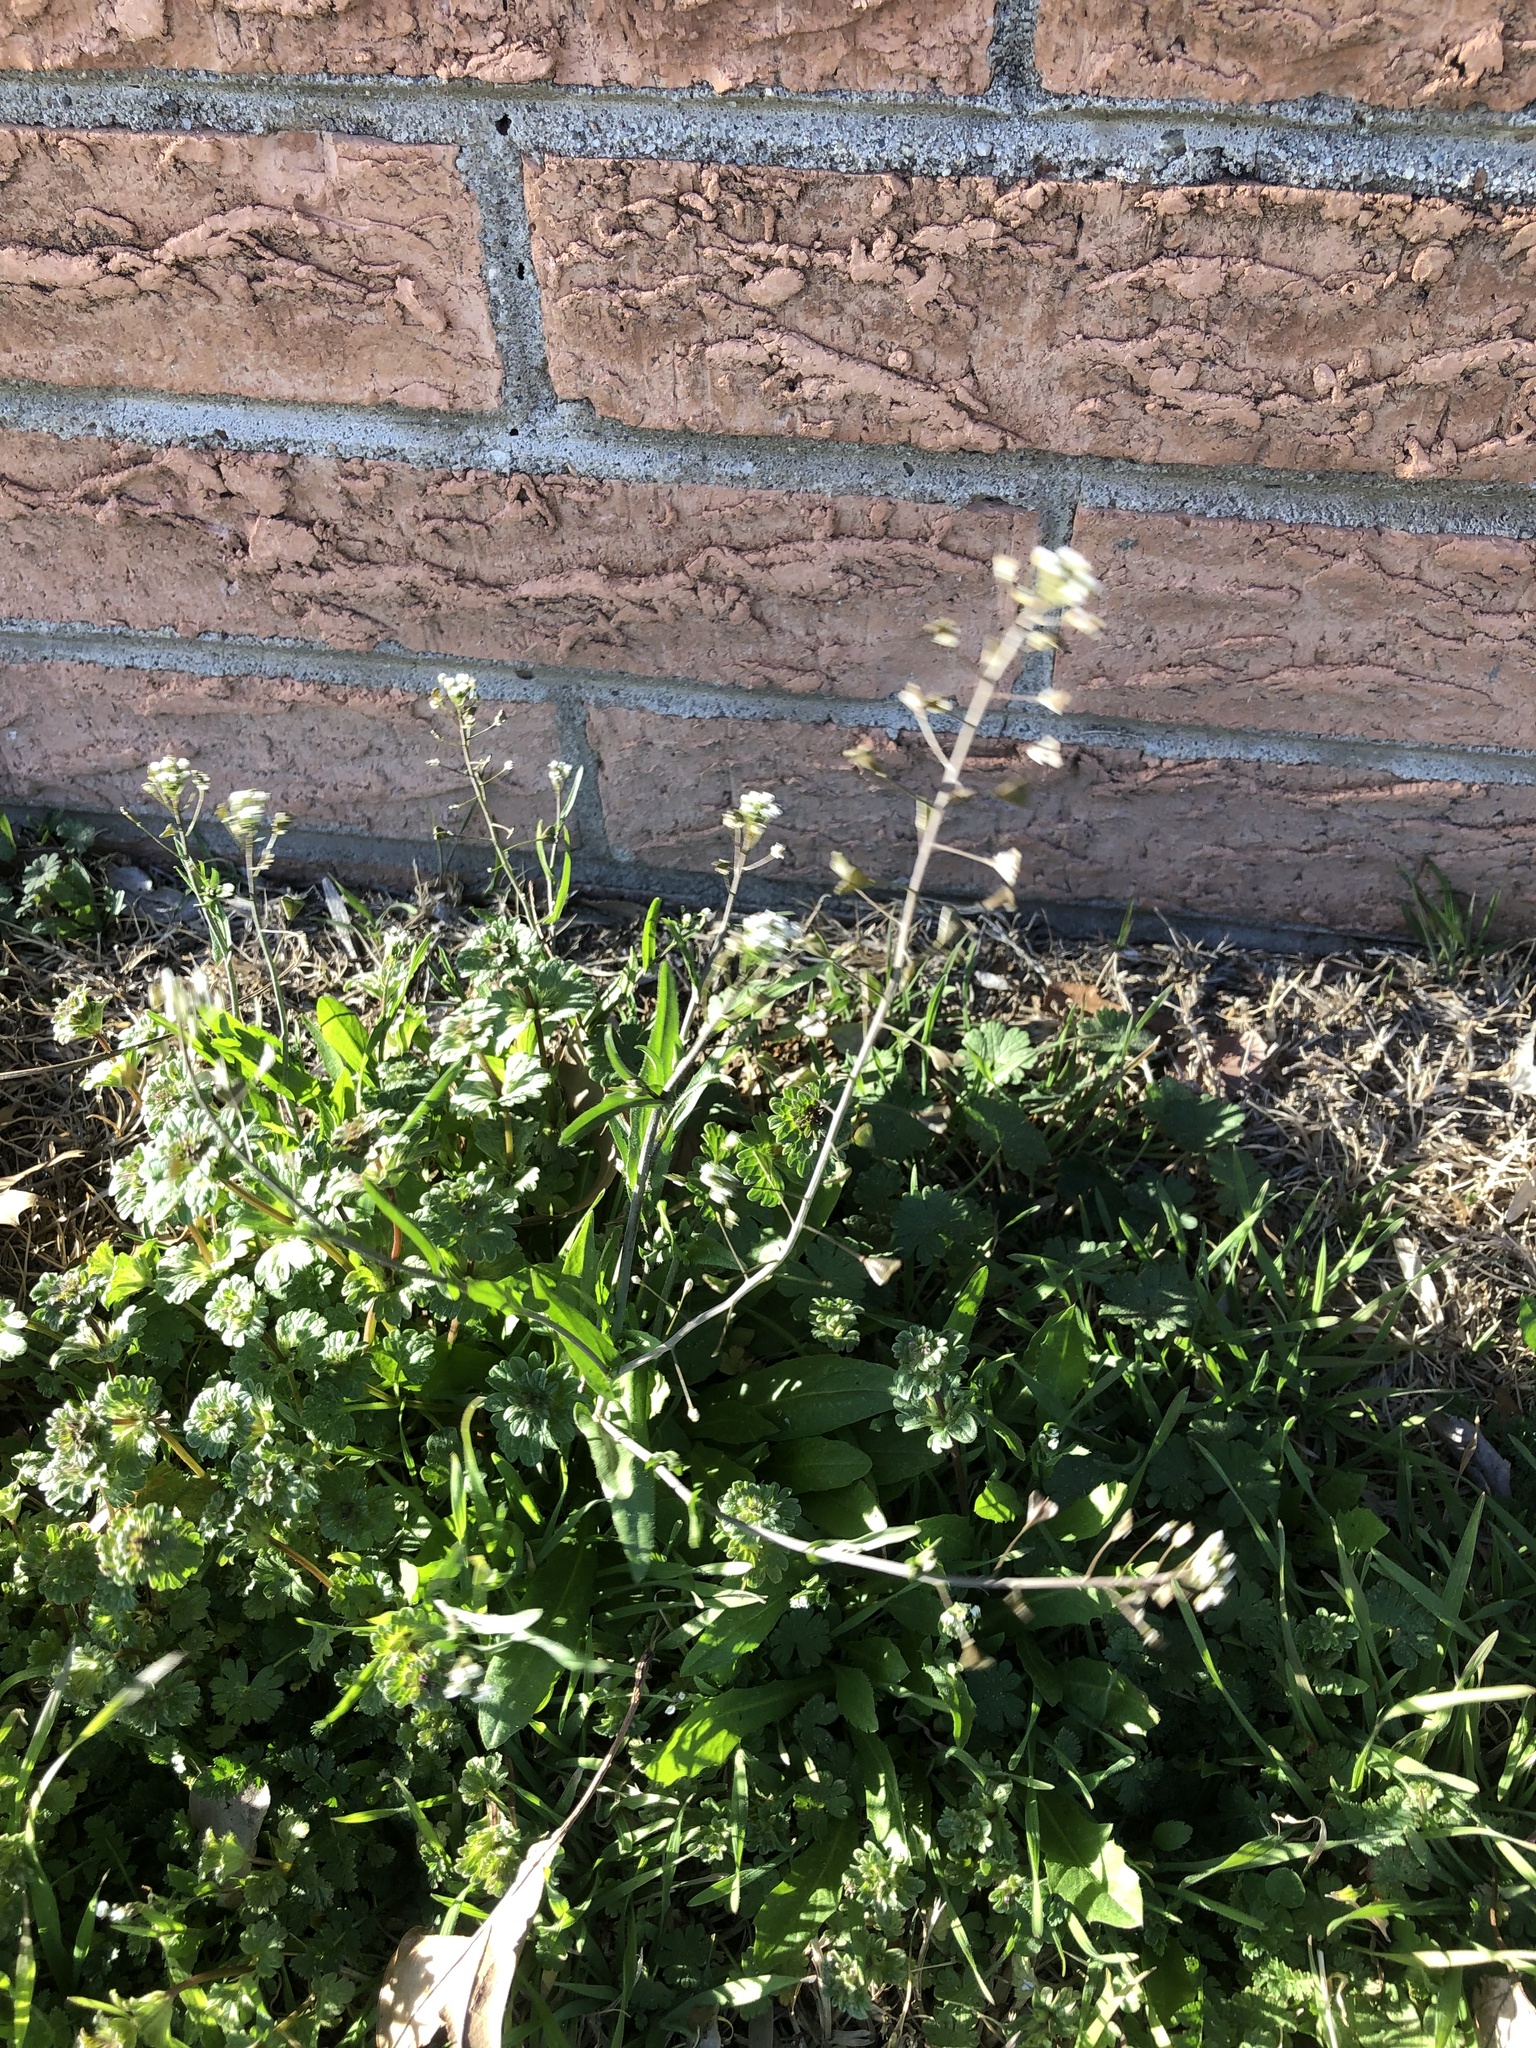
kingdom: Plantae
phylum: Tracheophyta
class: Magnoliopsida
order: Brassicales
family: Brassicaceae
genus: Capsella
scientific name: Capsella bursa-pastoris
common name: Shepherd's purse
